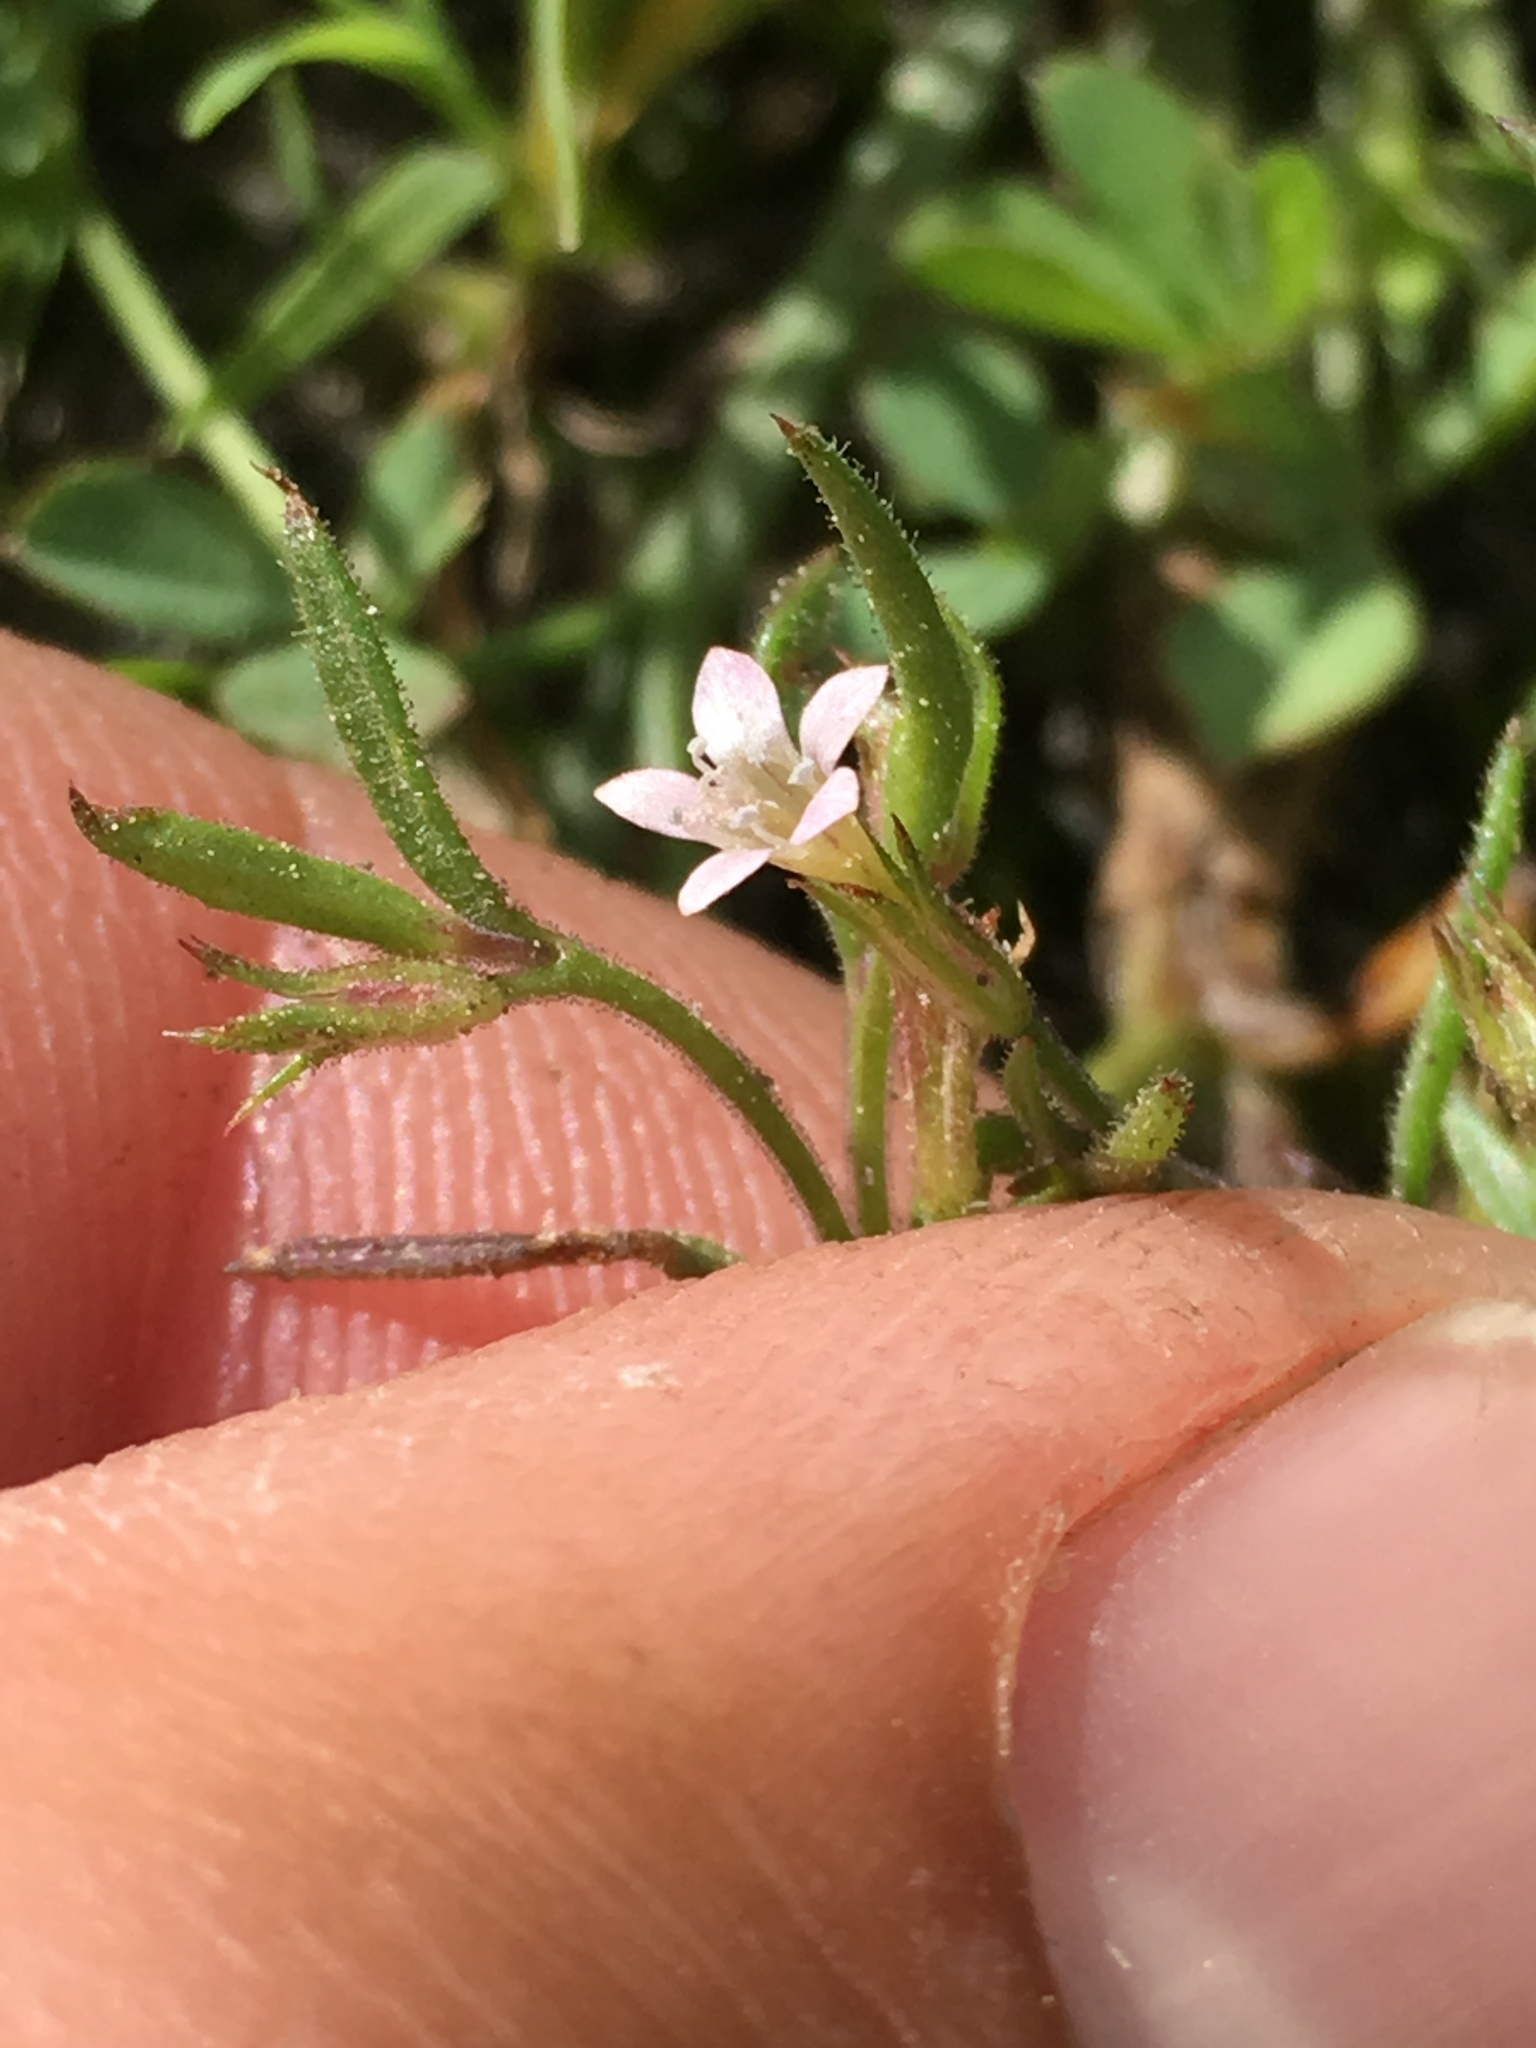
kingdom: Plantae
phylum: Tracheophyta
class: Magnoliopsida
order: Ericales
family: Polemoniaceae
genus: Allophyllum
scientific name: Allophyllum capillare
